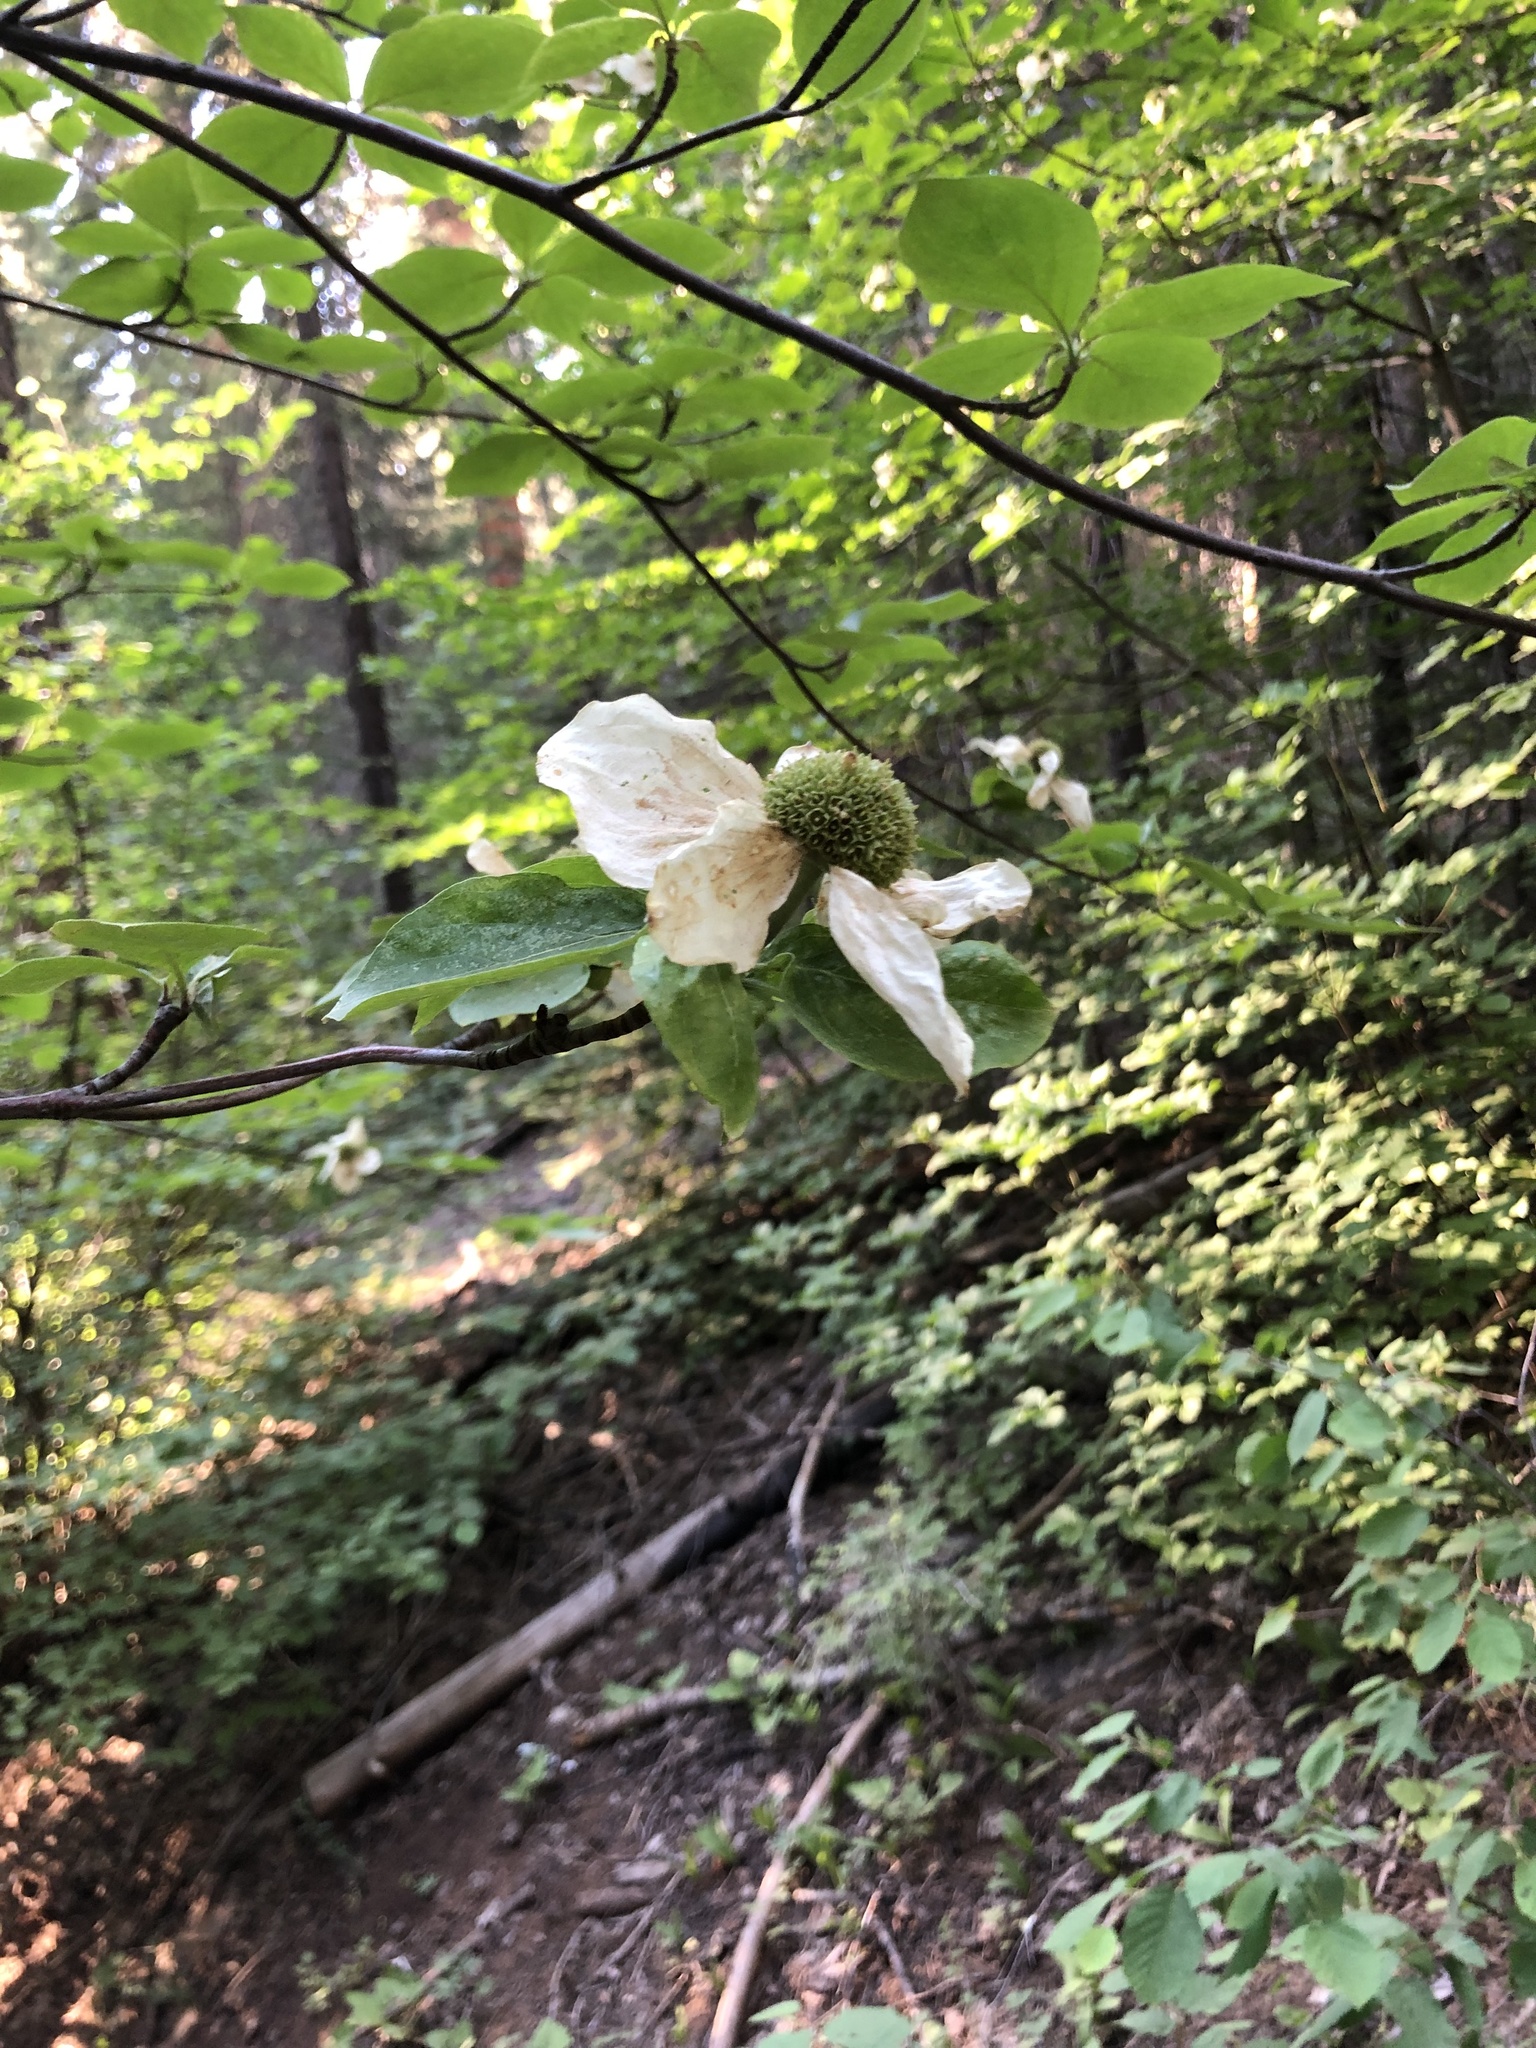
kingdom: Plantae
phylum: Tracheophyta
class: Magnoliopsida
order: Cornales
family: Cornaceae
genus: Cornus
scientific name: Cornus nuttallii
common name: Pacific dogwood
